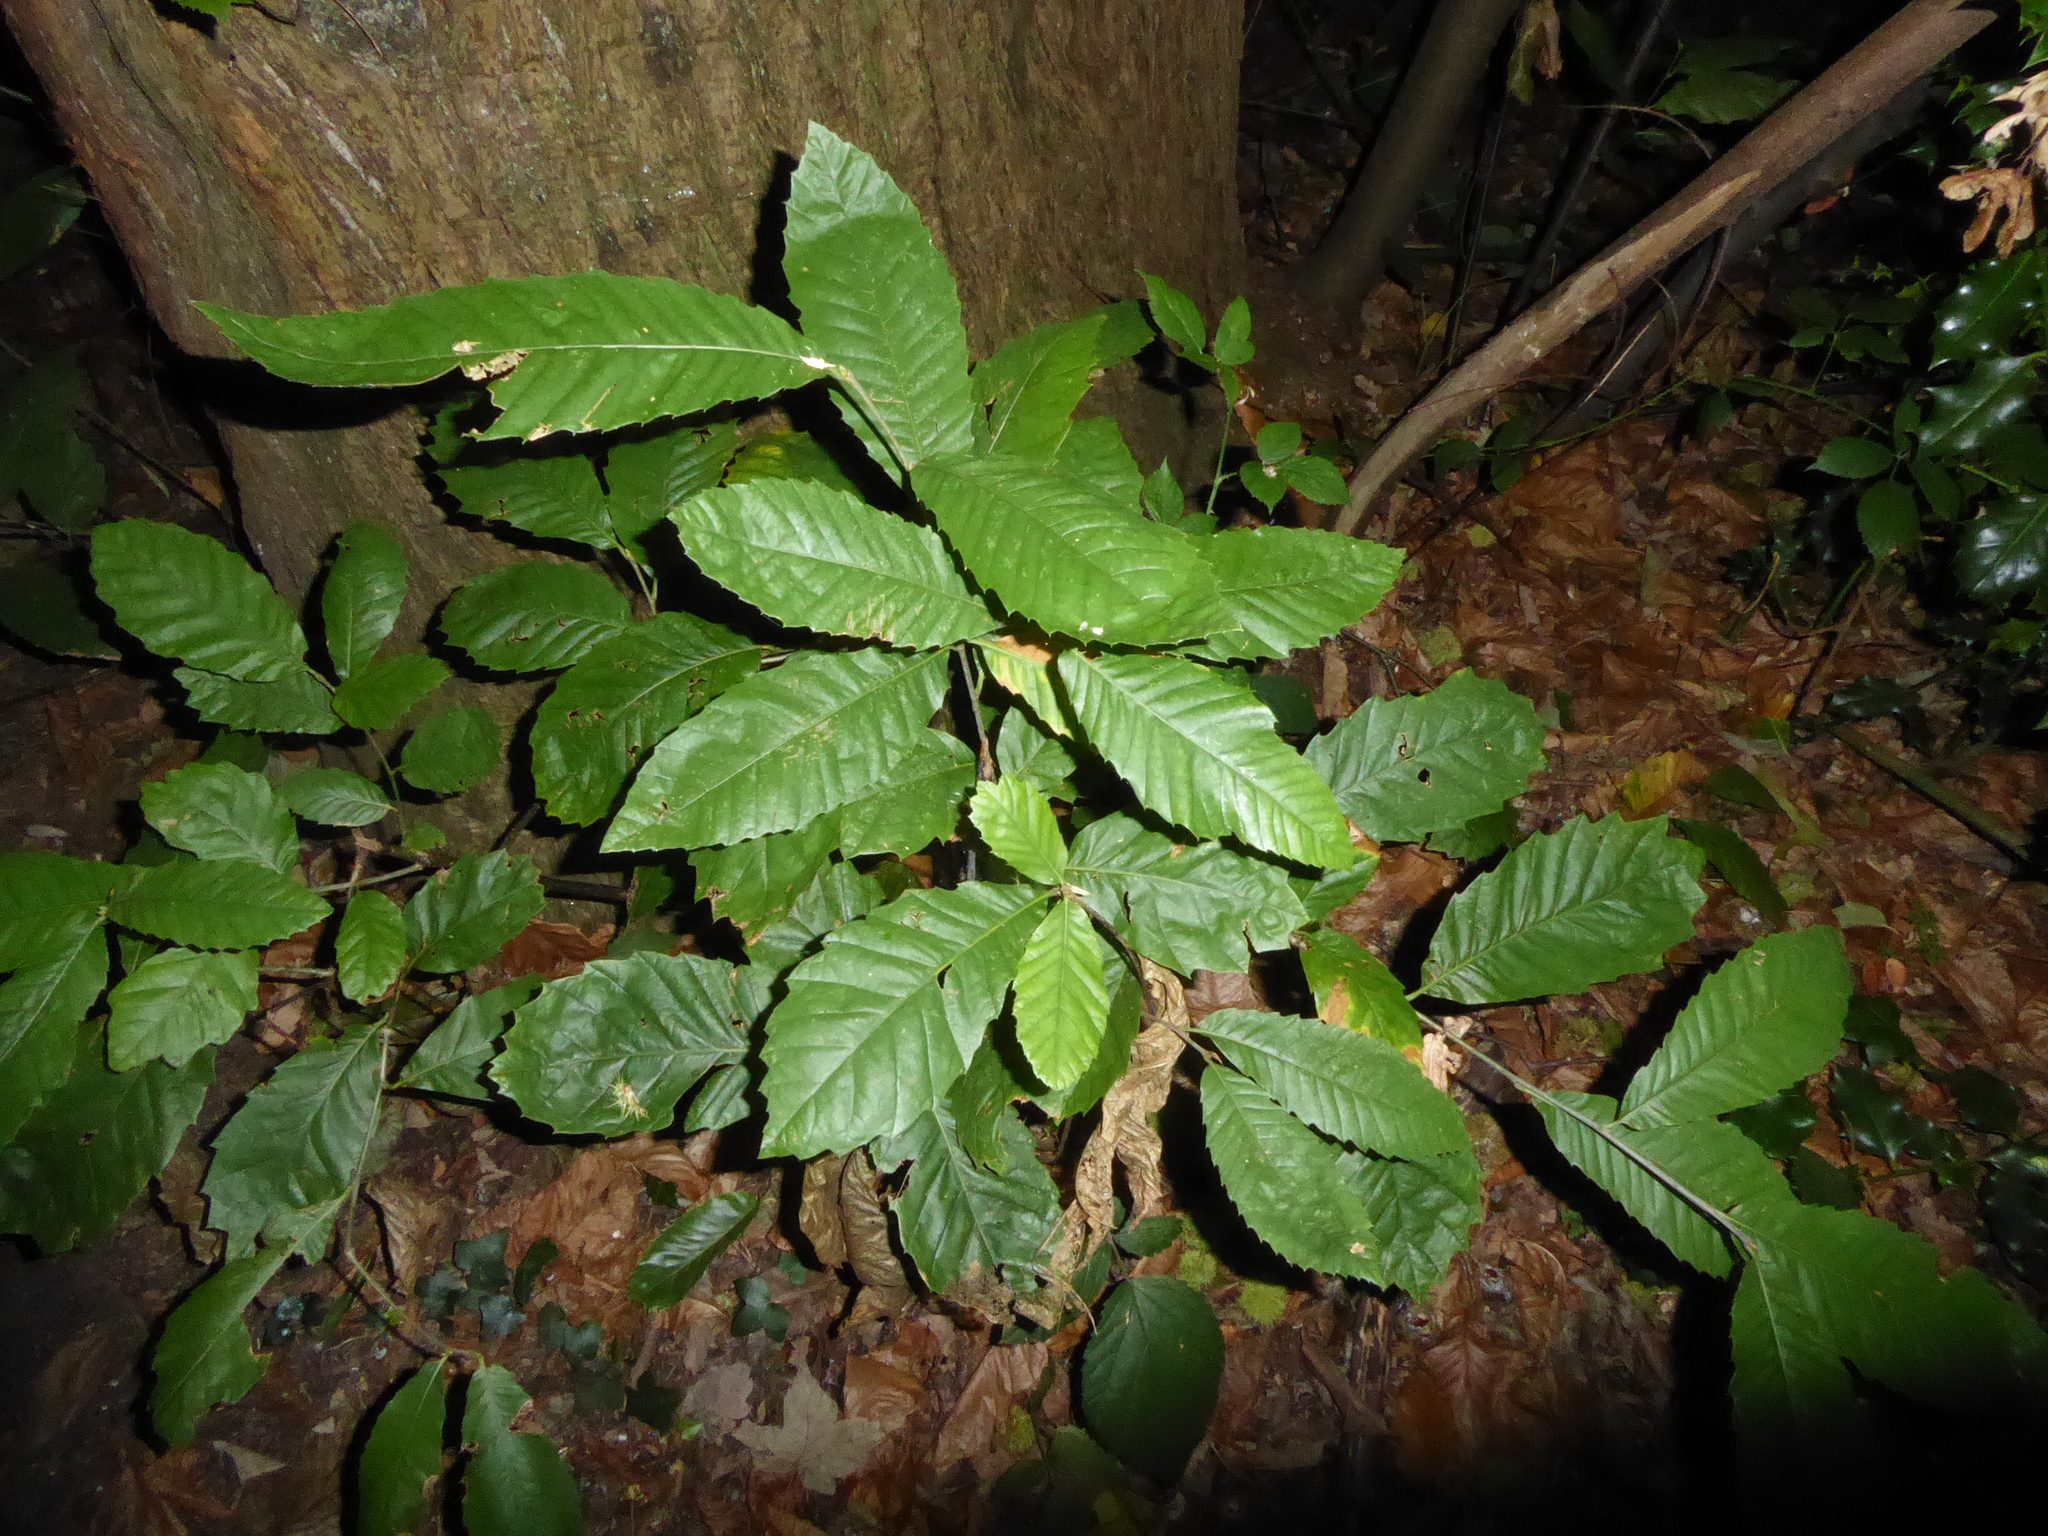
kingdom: Plantae
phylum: Tracheophyta
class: Magnoliopsida
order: Fagales
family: Fagaceae
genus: Castanea
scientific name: Castanea sativa
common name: Sweet chestnut
